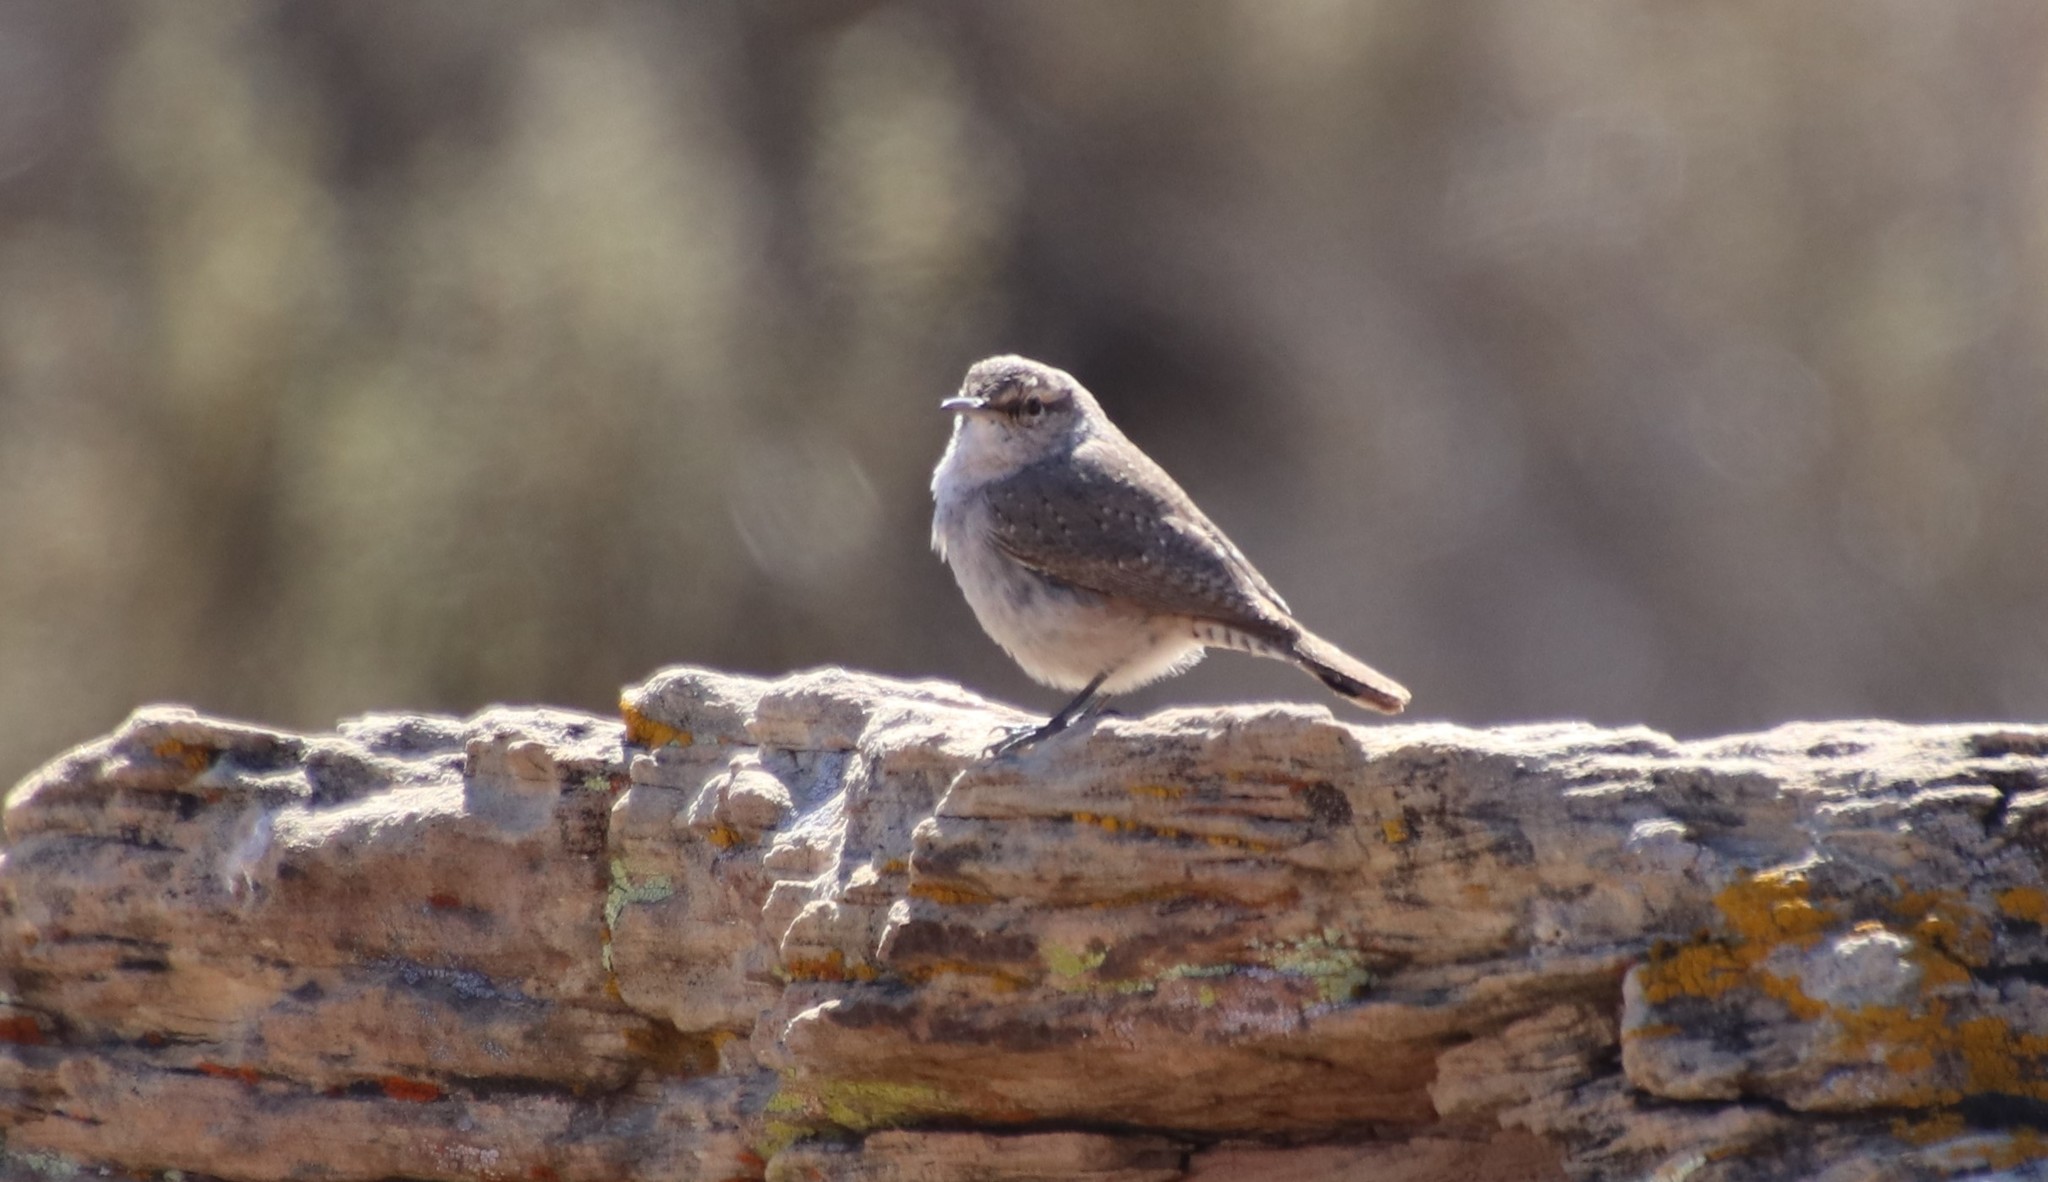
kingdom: Animalia
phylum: Chordata
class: Aves
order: Passeriformes
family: Troglodytidae
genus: Salpinctes
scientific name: Salpinctes obsoletus
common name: Rock wren
